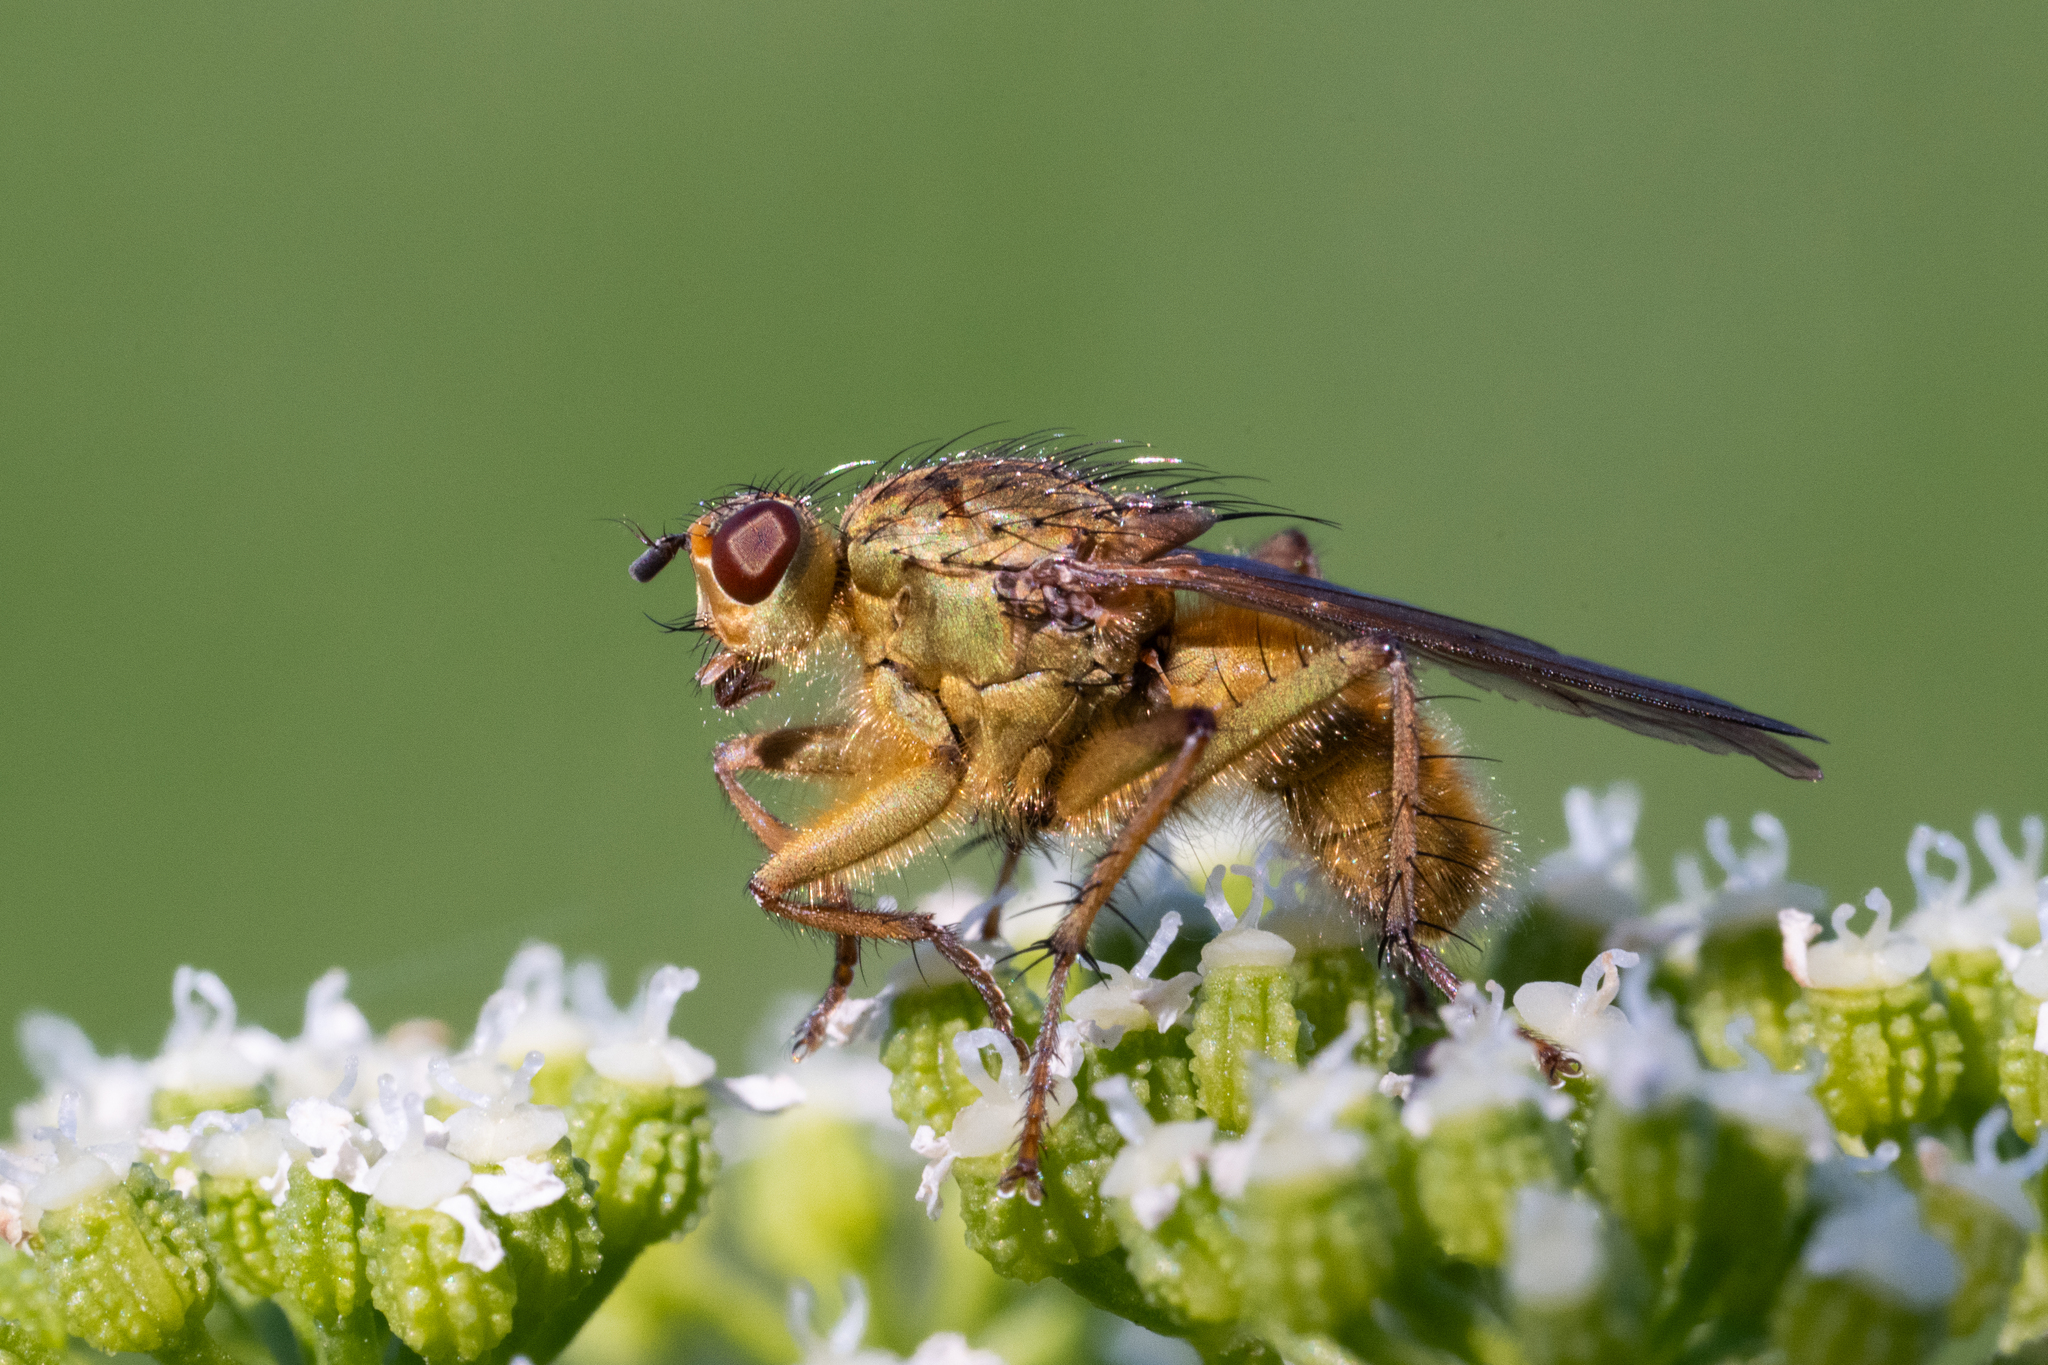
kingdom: Animalia
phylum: Arthropoda
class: Insecta
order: Diptera
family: Scathophagidae
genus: Scathophaga
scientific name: Scathophaga stercoraria
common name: Yellow dung fly
